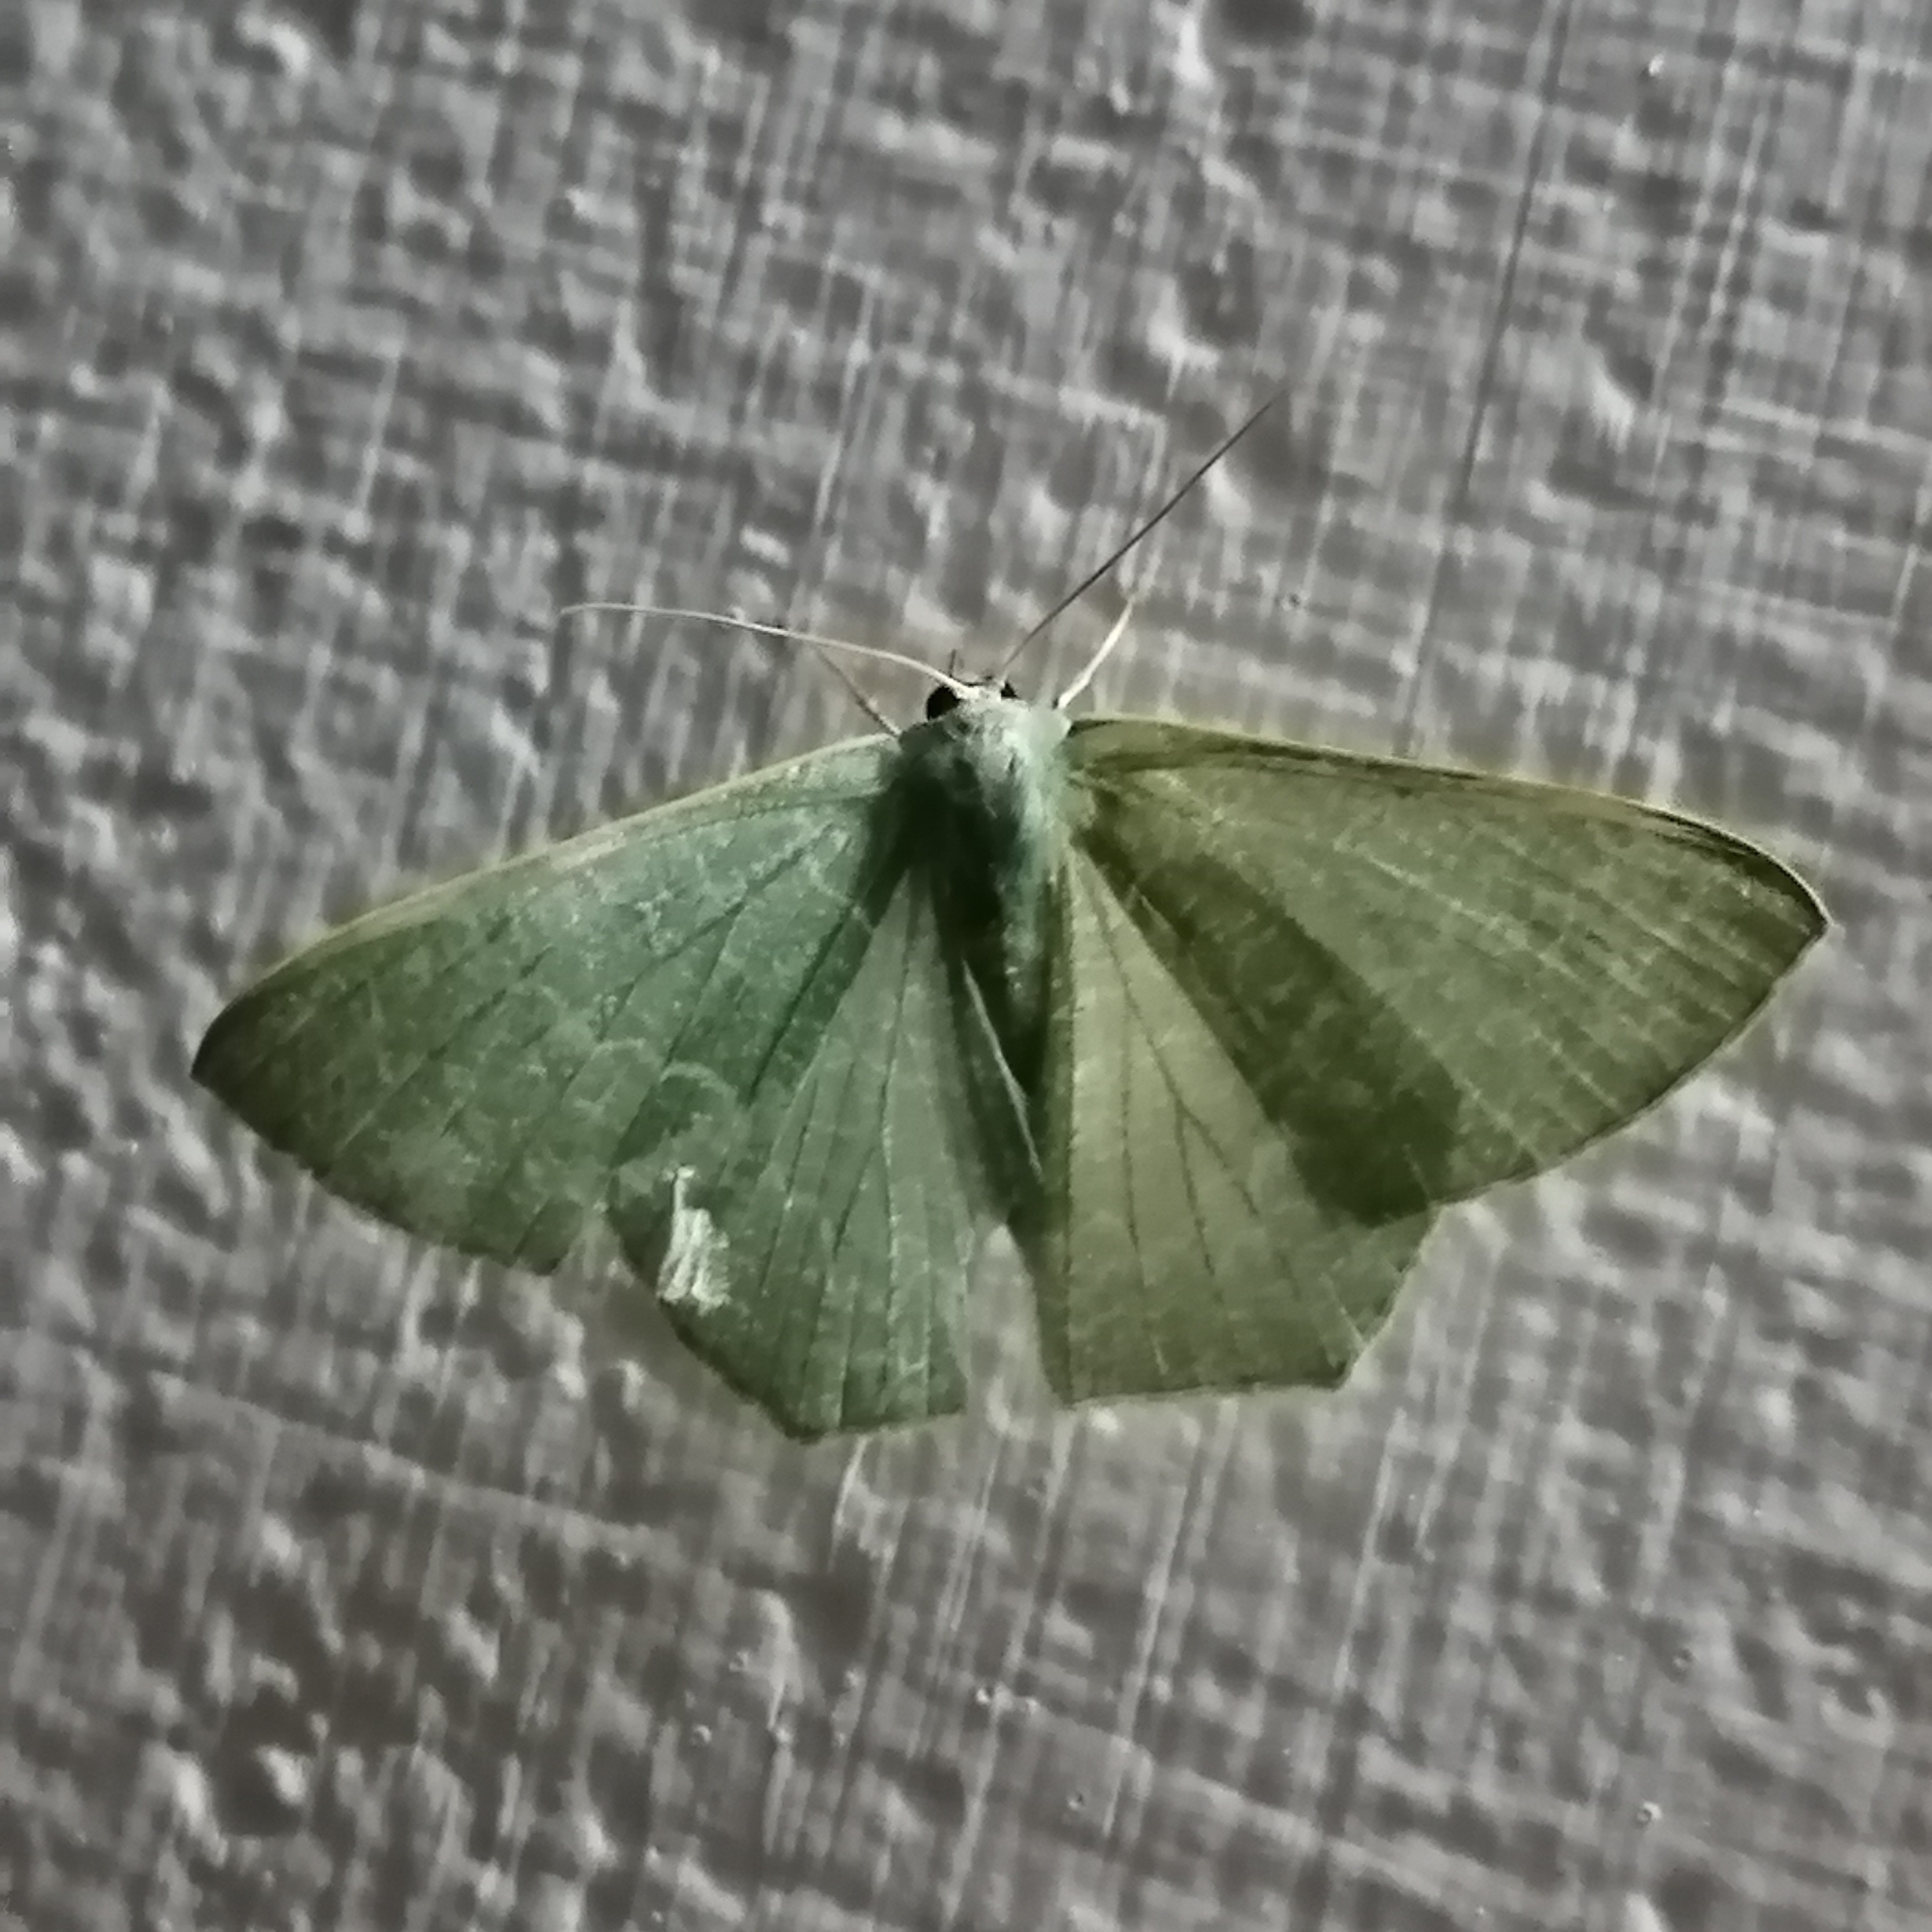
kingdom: Animalia
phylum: Arthropoda
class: Insecta
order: Lepidoptera
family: Geometridae
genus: Pelagodes
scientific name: Pelagodes antiquadraria
